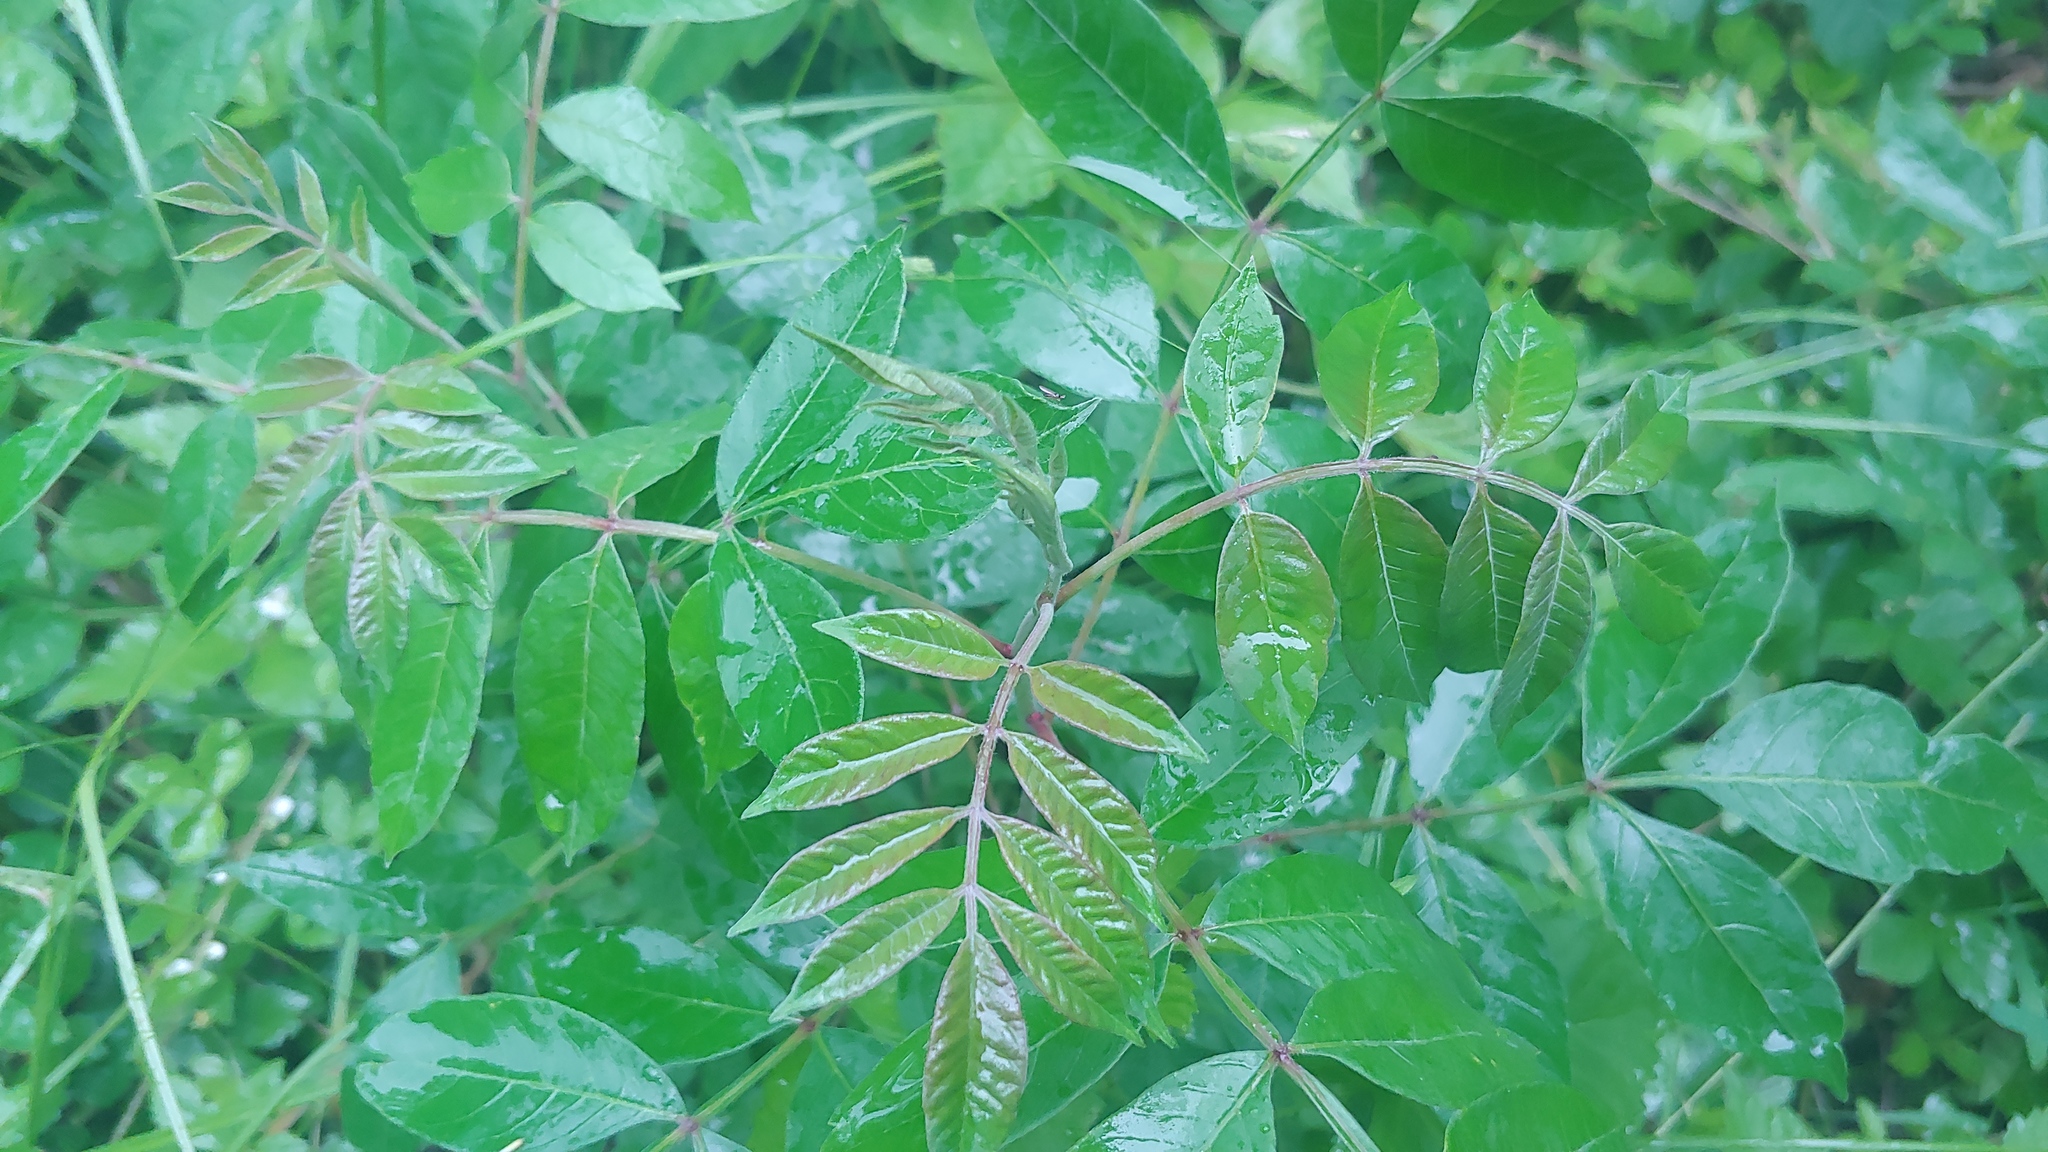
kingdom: Plantae
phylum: Tracheophyta
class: Magnoliopsida
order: Sapindales
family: Anacardiaceae
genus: Rhus
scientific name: Rhus copallina
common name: Shining sumac
